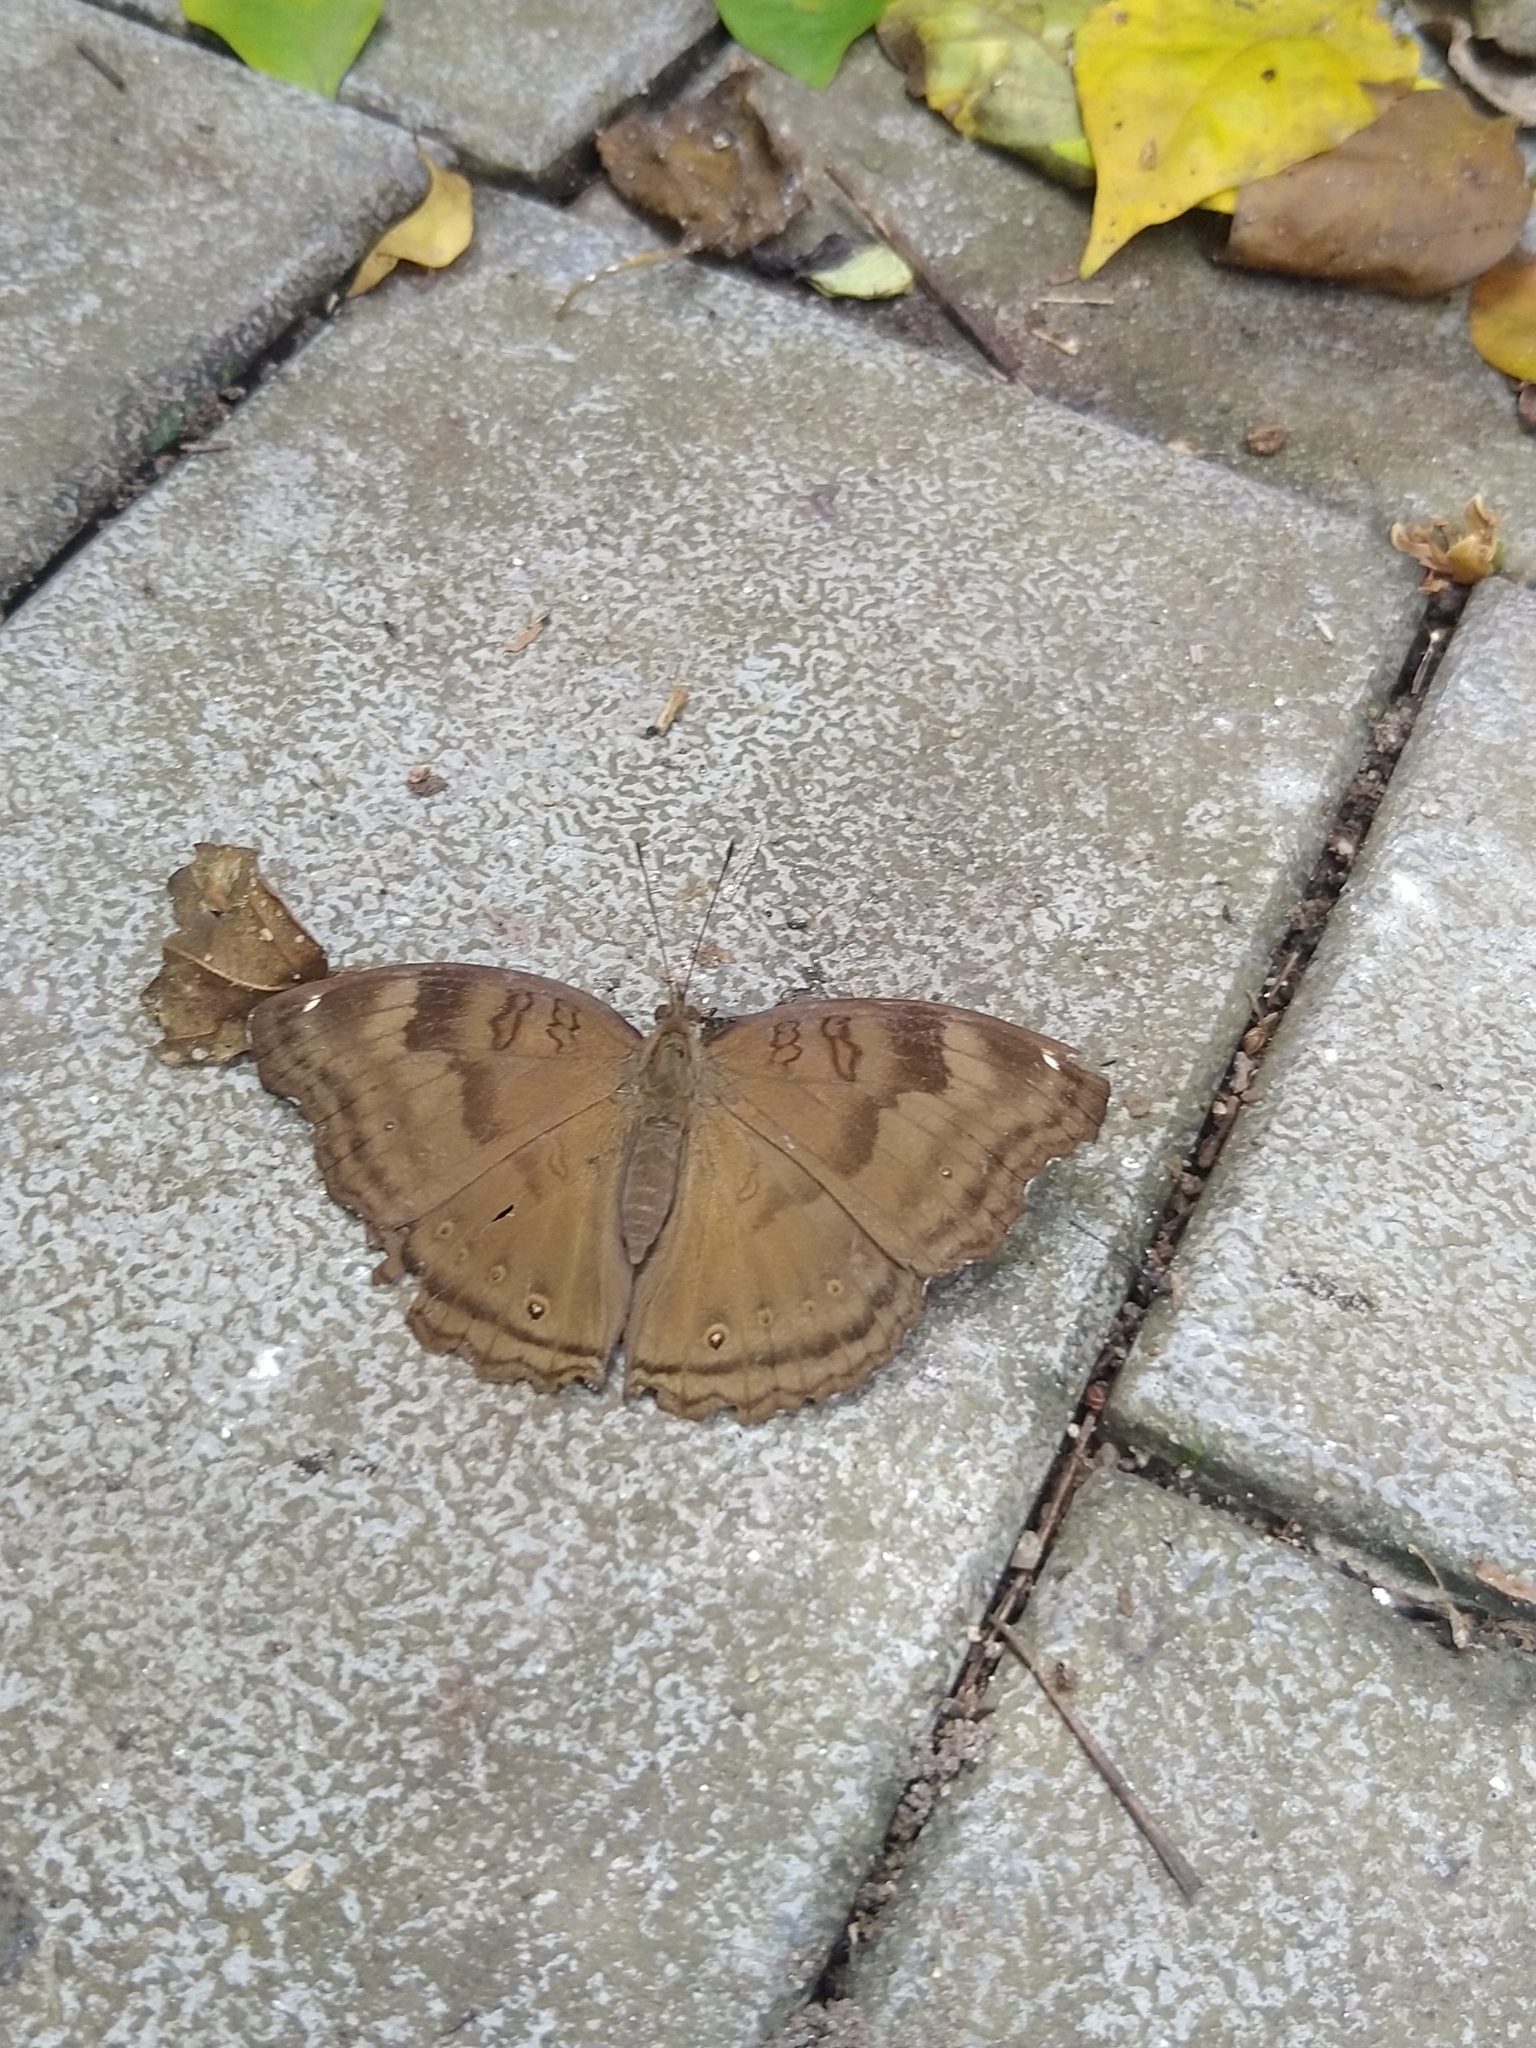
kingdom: Animalia
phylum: Arthropoda
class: Insecta
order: Lepidoptera
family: Nymphalidae
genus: Junonia
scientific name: Junonia iphita
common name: Chocolate pansy
